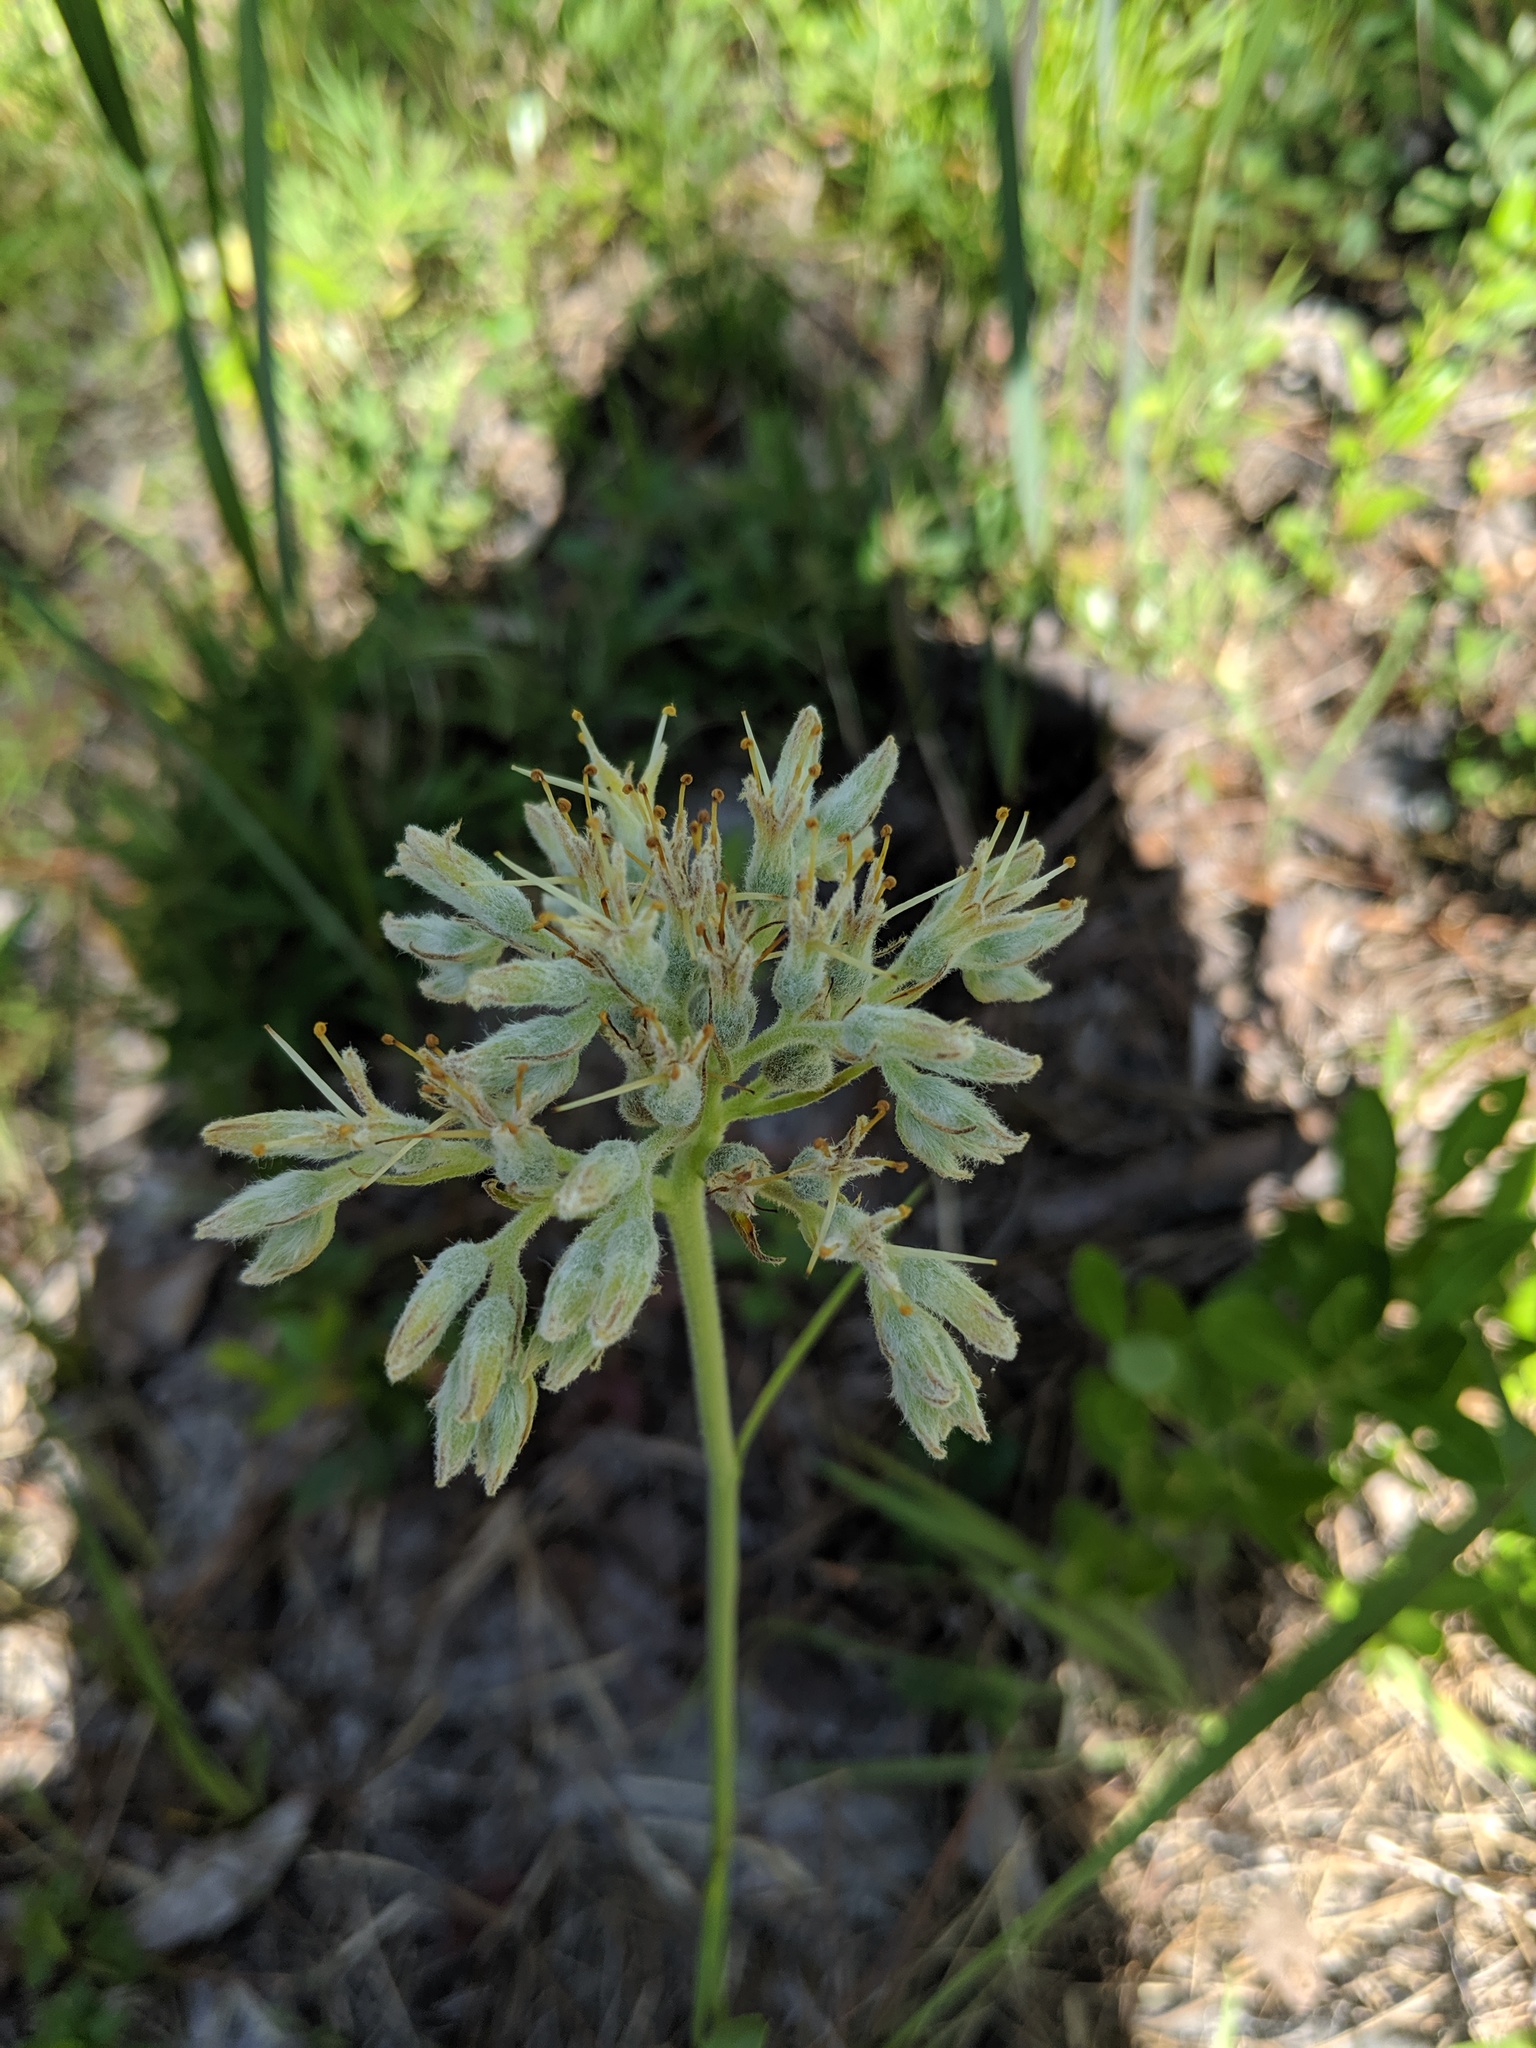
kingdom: Plantae
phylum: Tracheophyta
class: Liliopsida
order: Commelinales
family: Haemodoraceae
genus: Lachnanthes
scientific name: Lachnanthes caroliana
